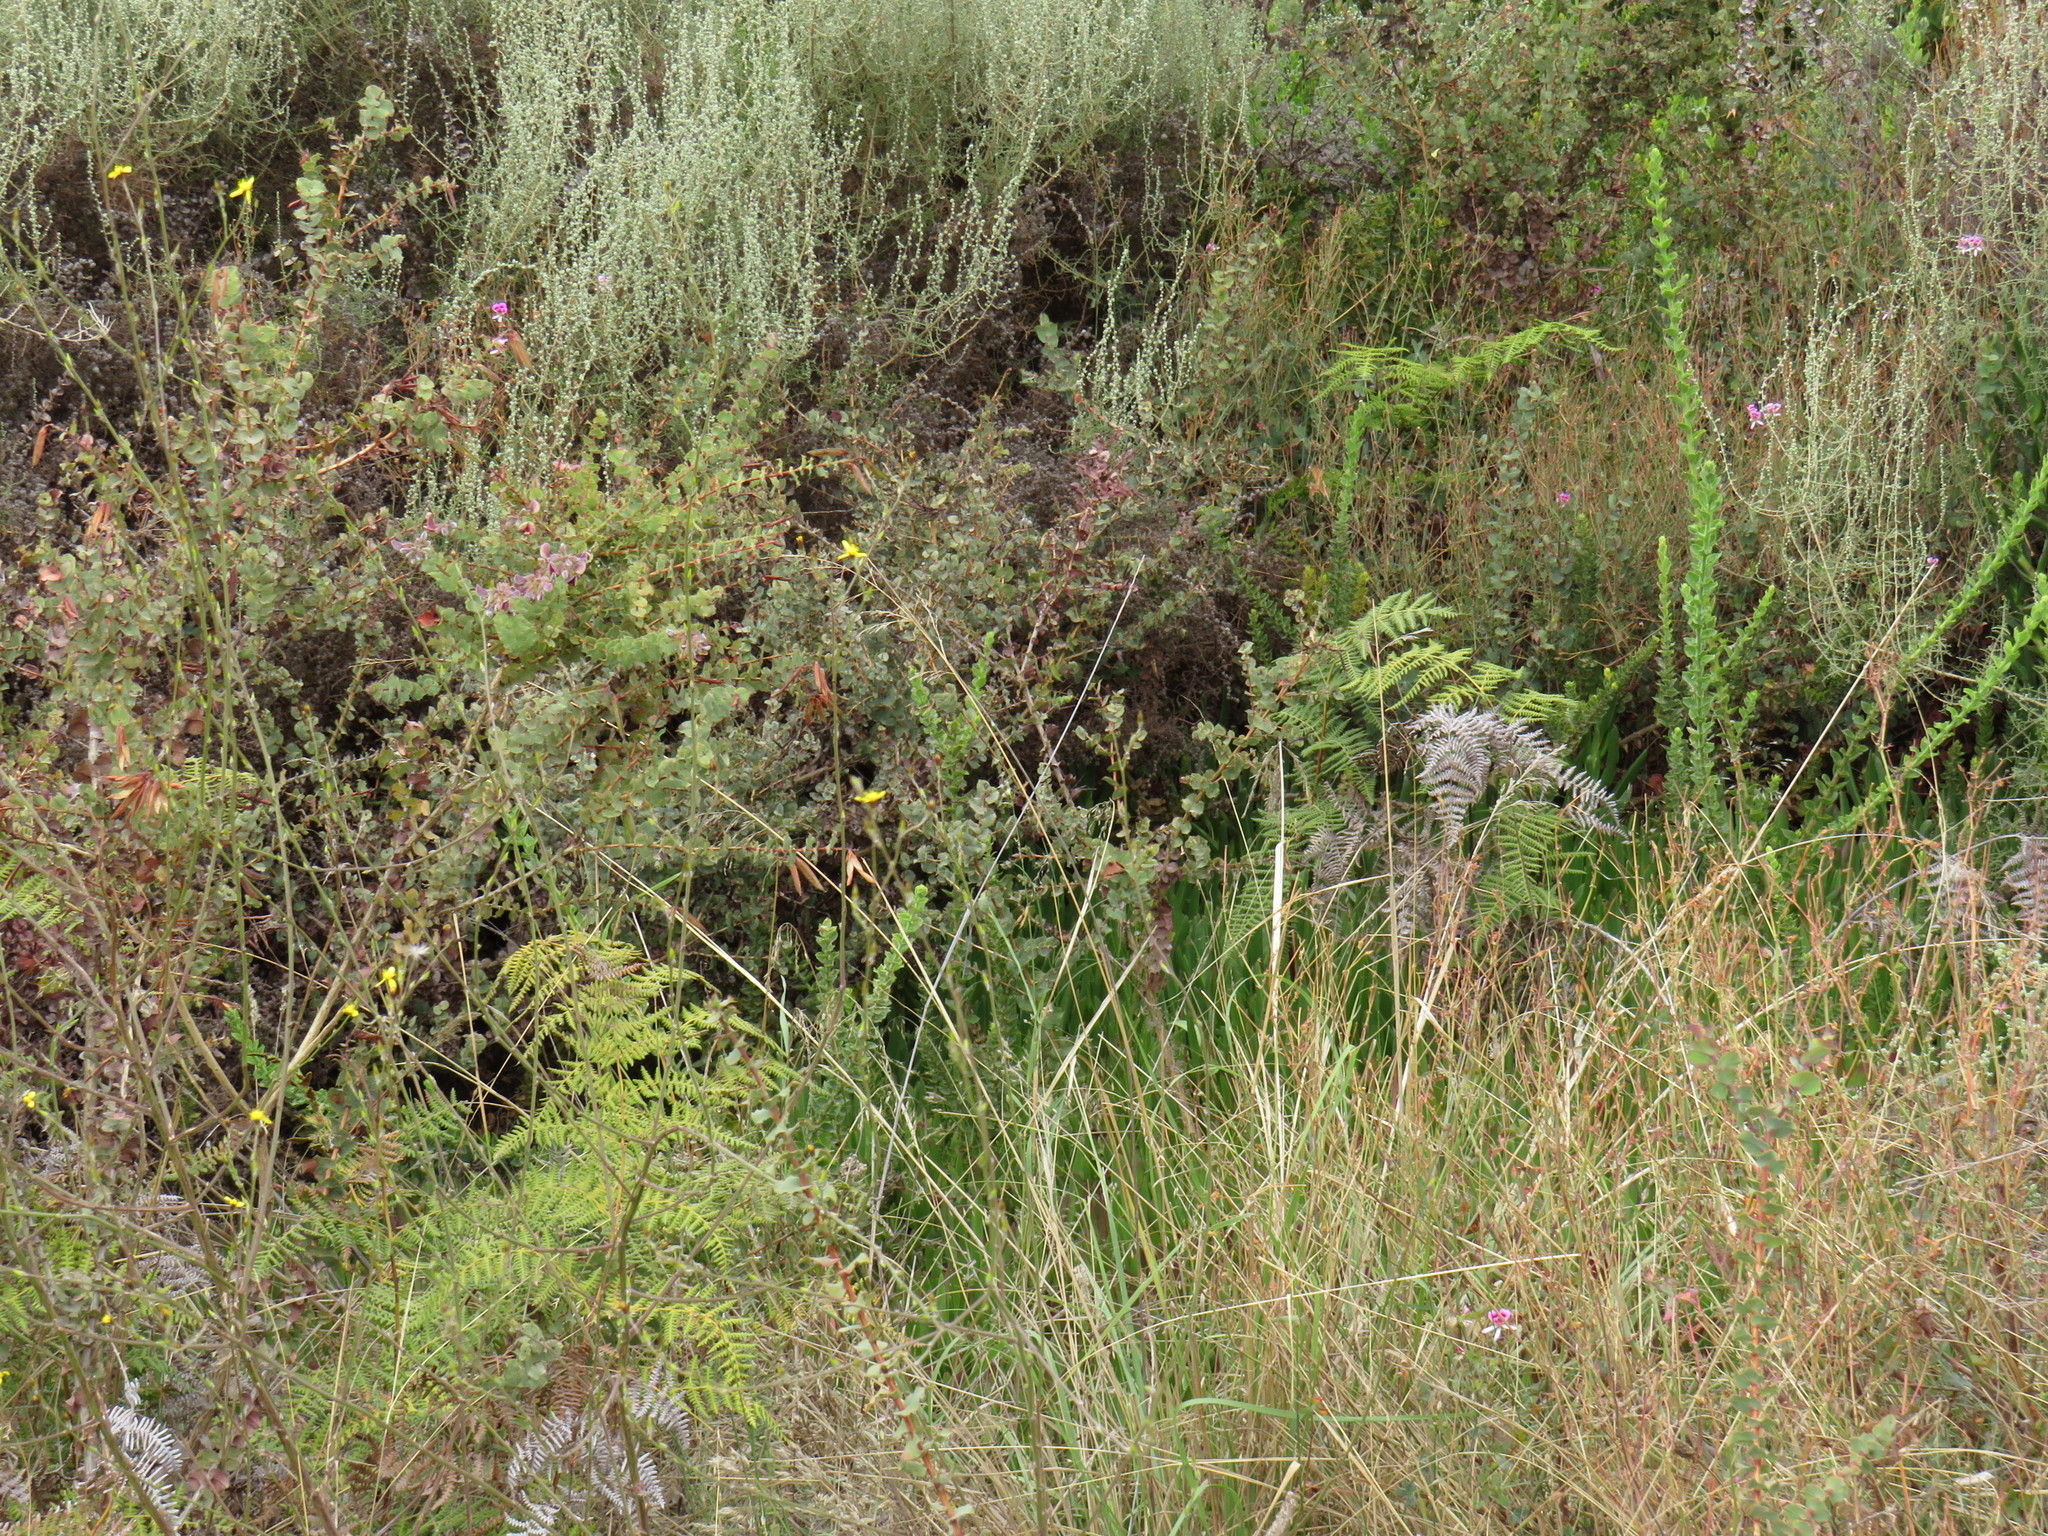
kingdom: Plantae
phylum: Tracheophyta
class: Magnoliopsida
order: Geraniales
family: Geraniaceae
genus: Pelargonium
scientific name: Pelargonium grandiflorum
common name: Large-flower pelargonium
